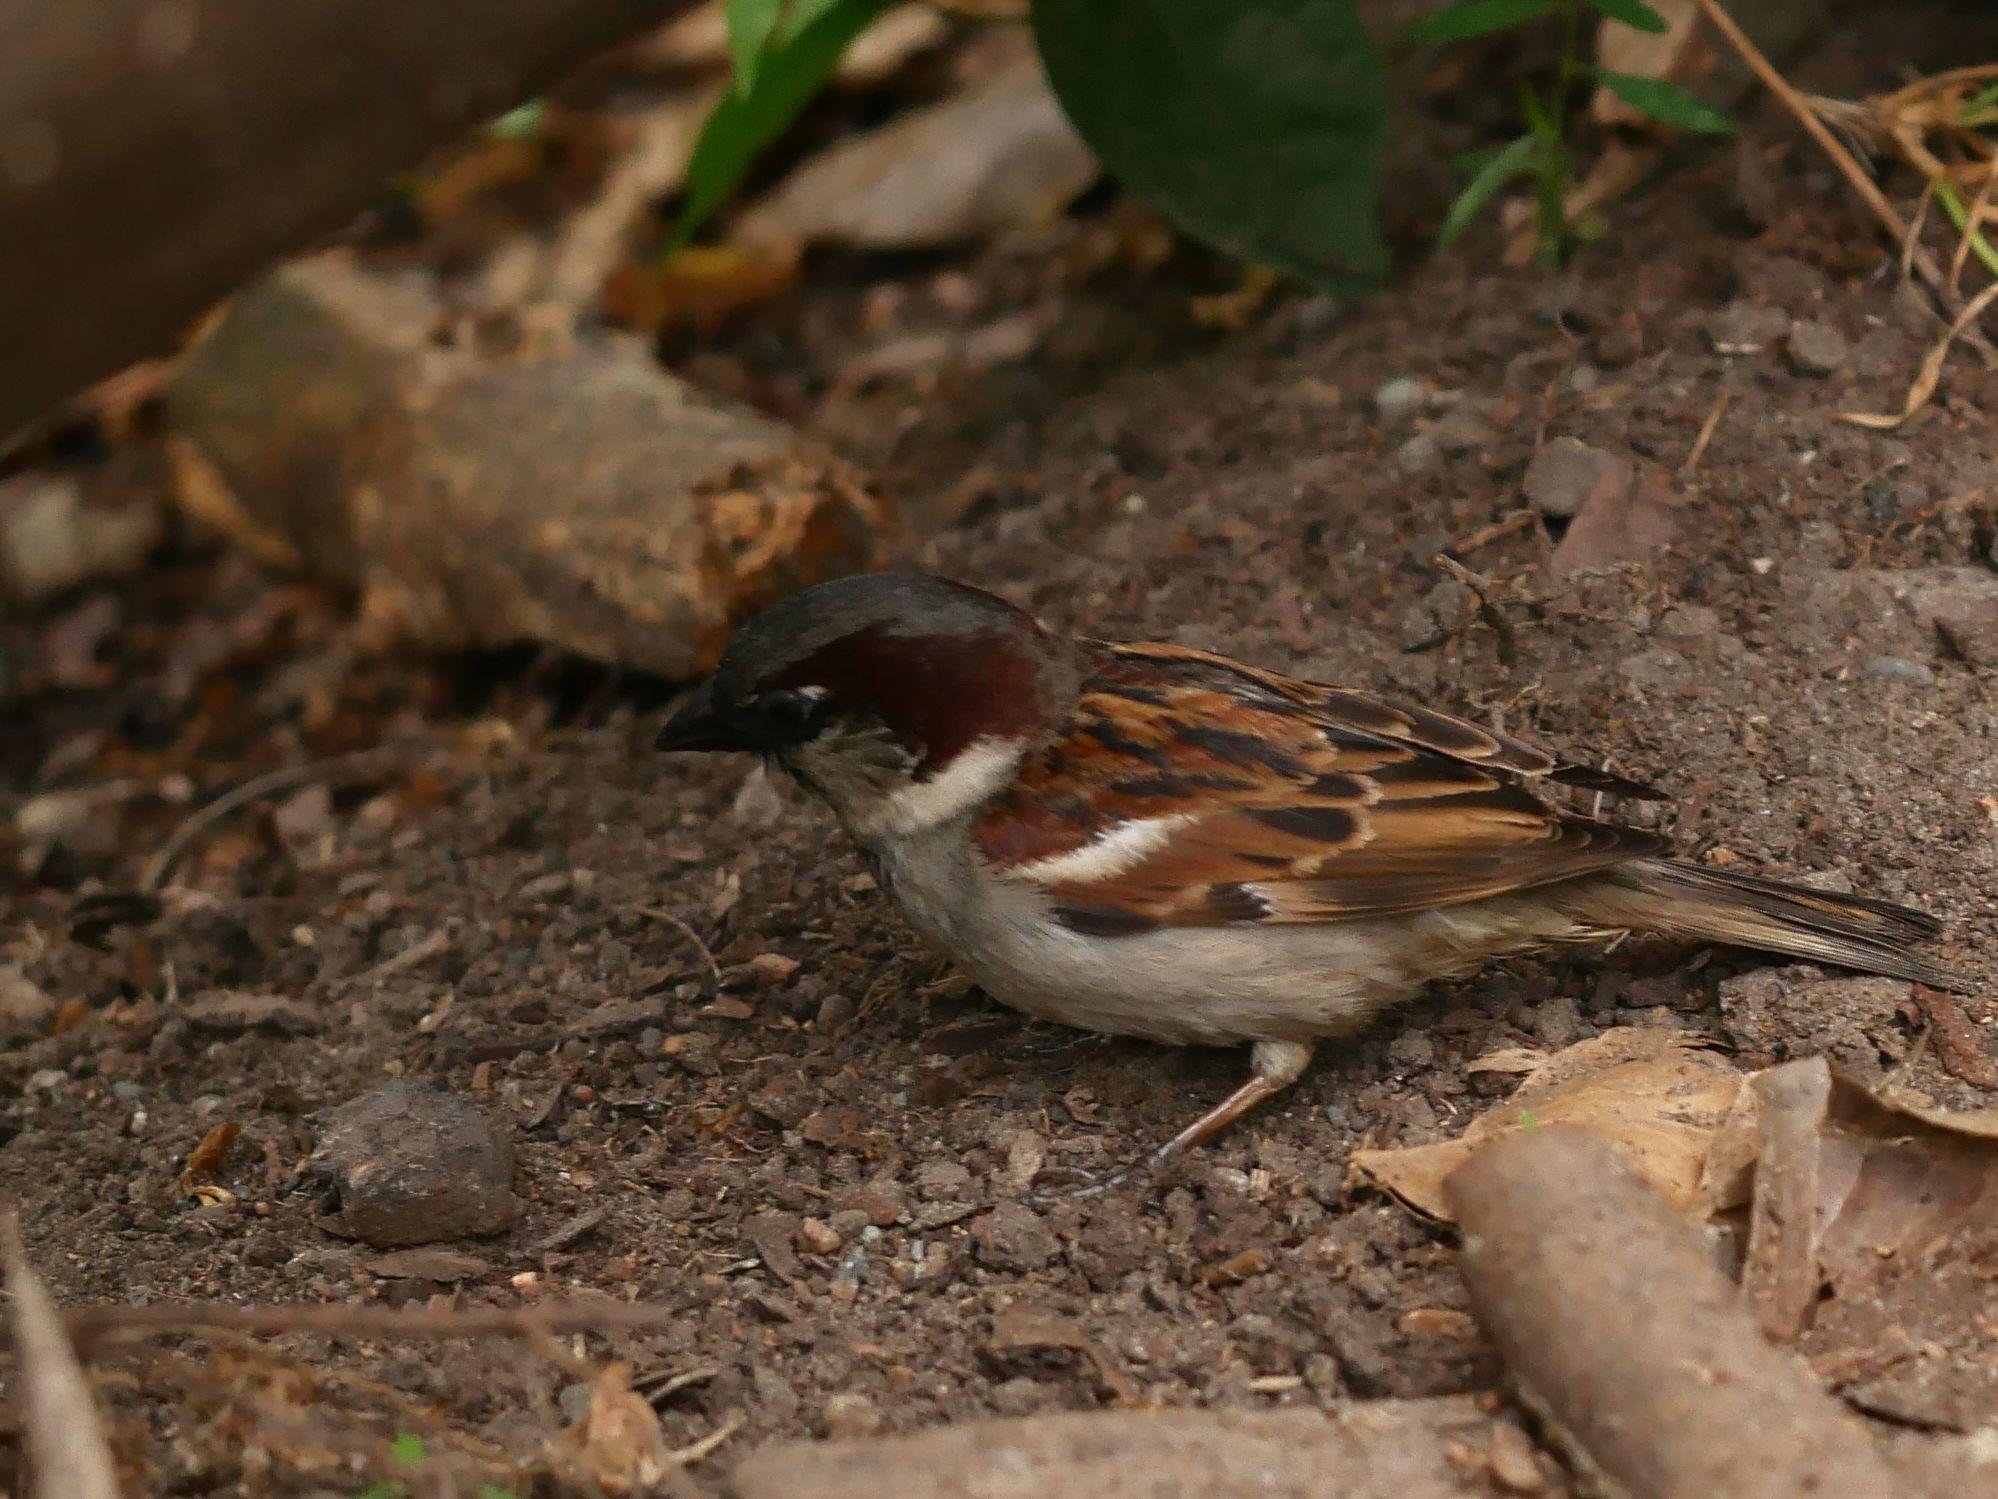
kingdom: Animalia
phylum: Chordata
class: Aves
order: Passeriformes
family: Passeridae
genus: Passer
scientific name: Passer domesticus
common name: House sparrow
